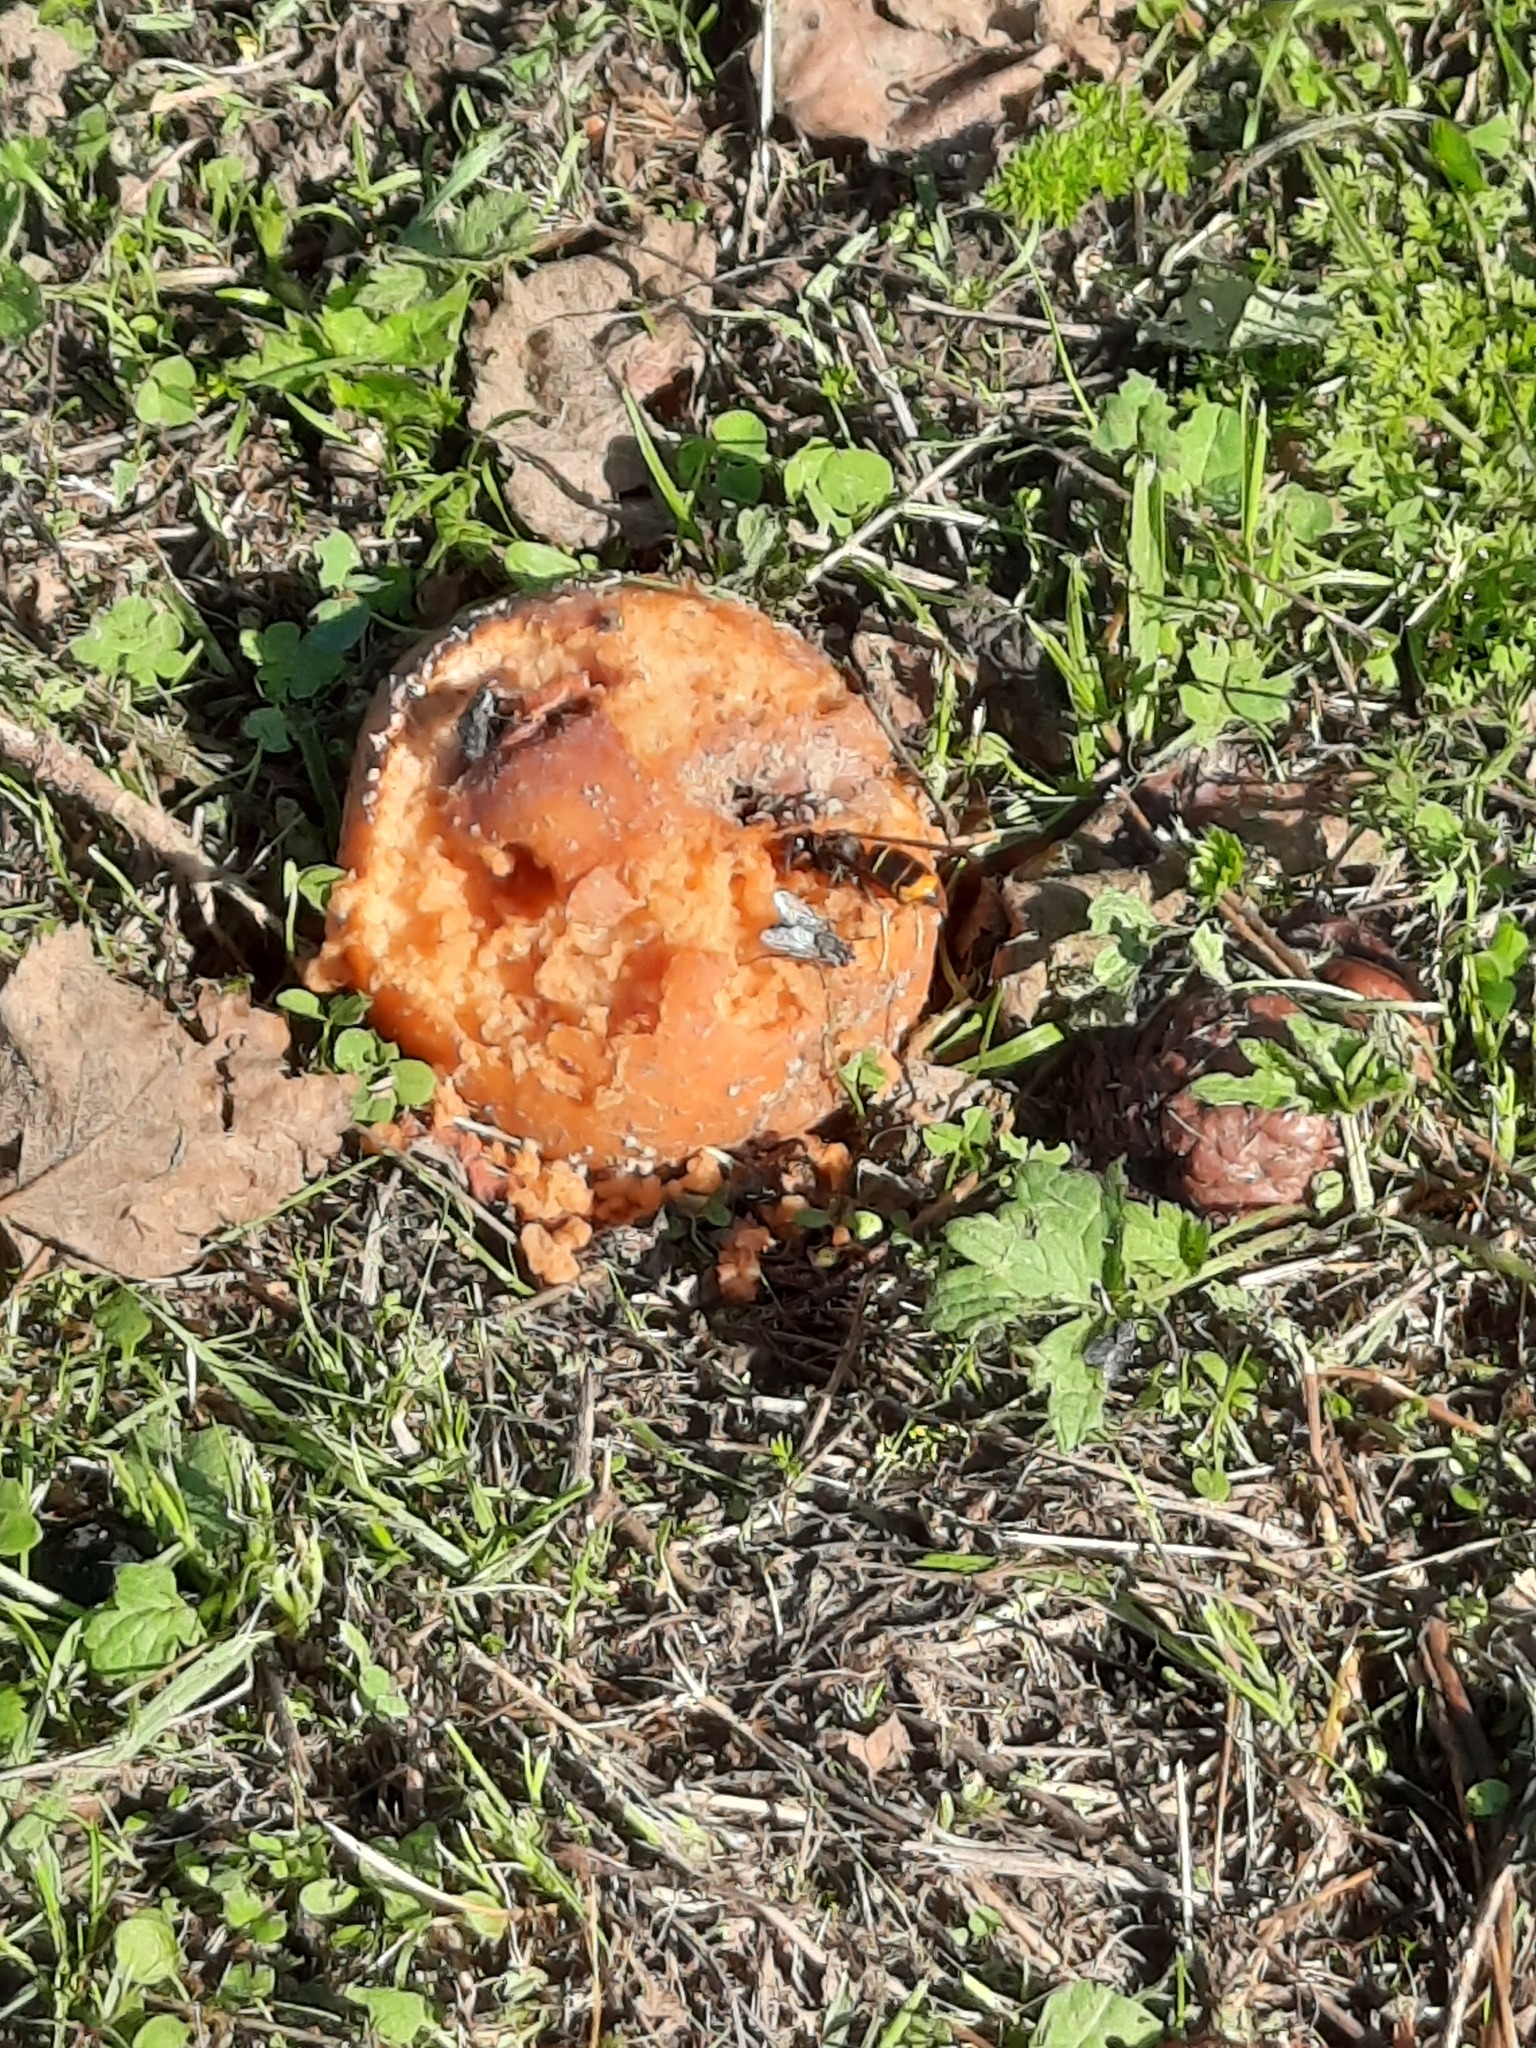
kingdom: Animalia
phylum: Arthropoda
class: Insecta
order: Hymenoptera
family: Vespidae
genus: Vespa
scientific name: Vespa velutina
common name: Asian hornet
